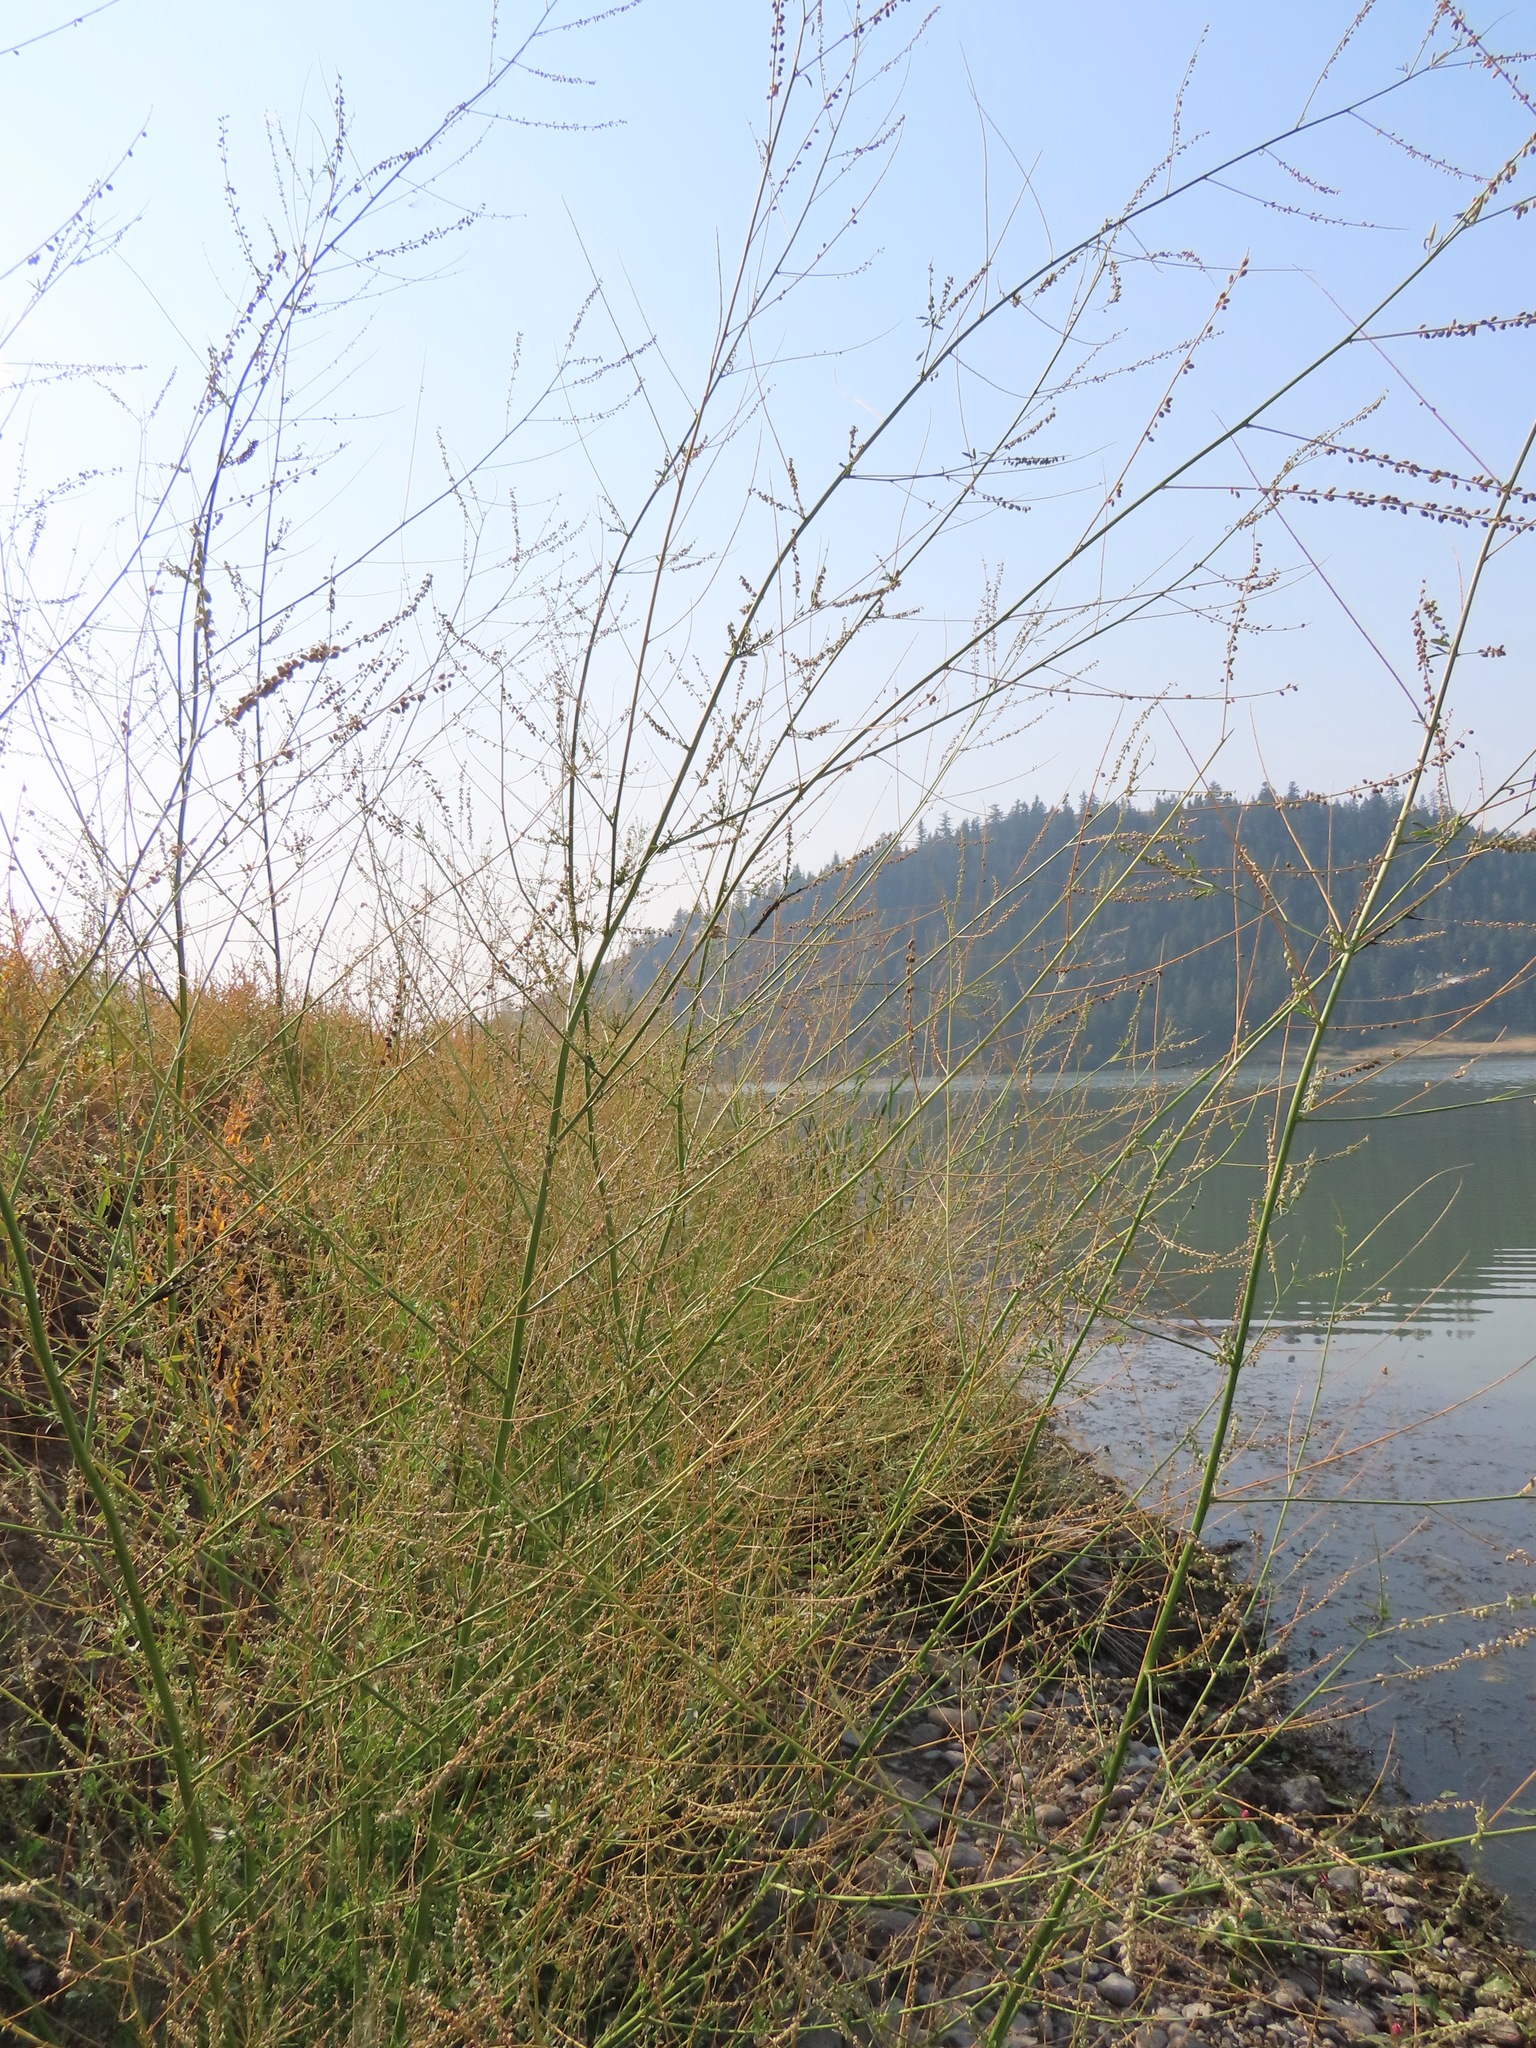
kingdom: Plantae
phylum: Tracheophyta
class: Magnoliopsida
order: Fabales
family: Fabaceae
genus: Melilotus
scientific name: Melilotus albus
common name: White melilot
